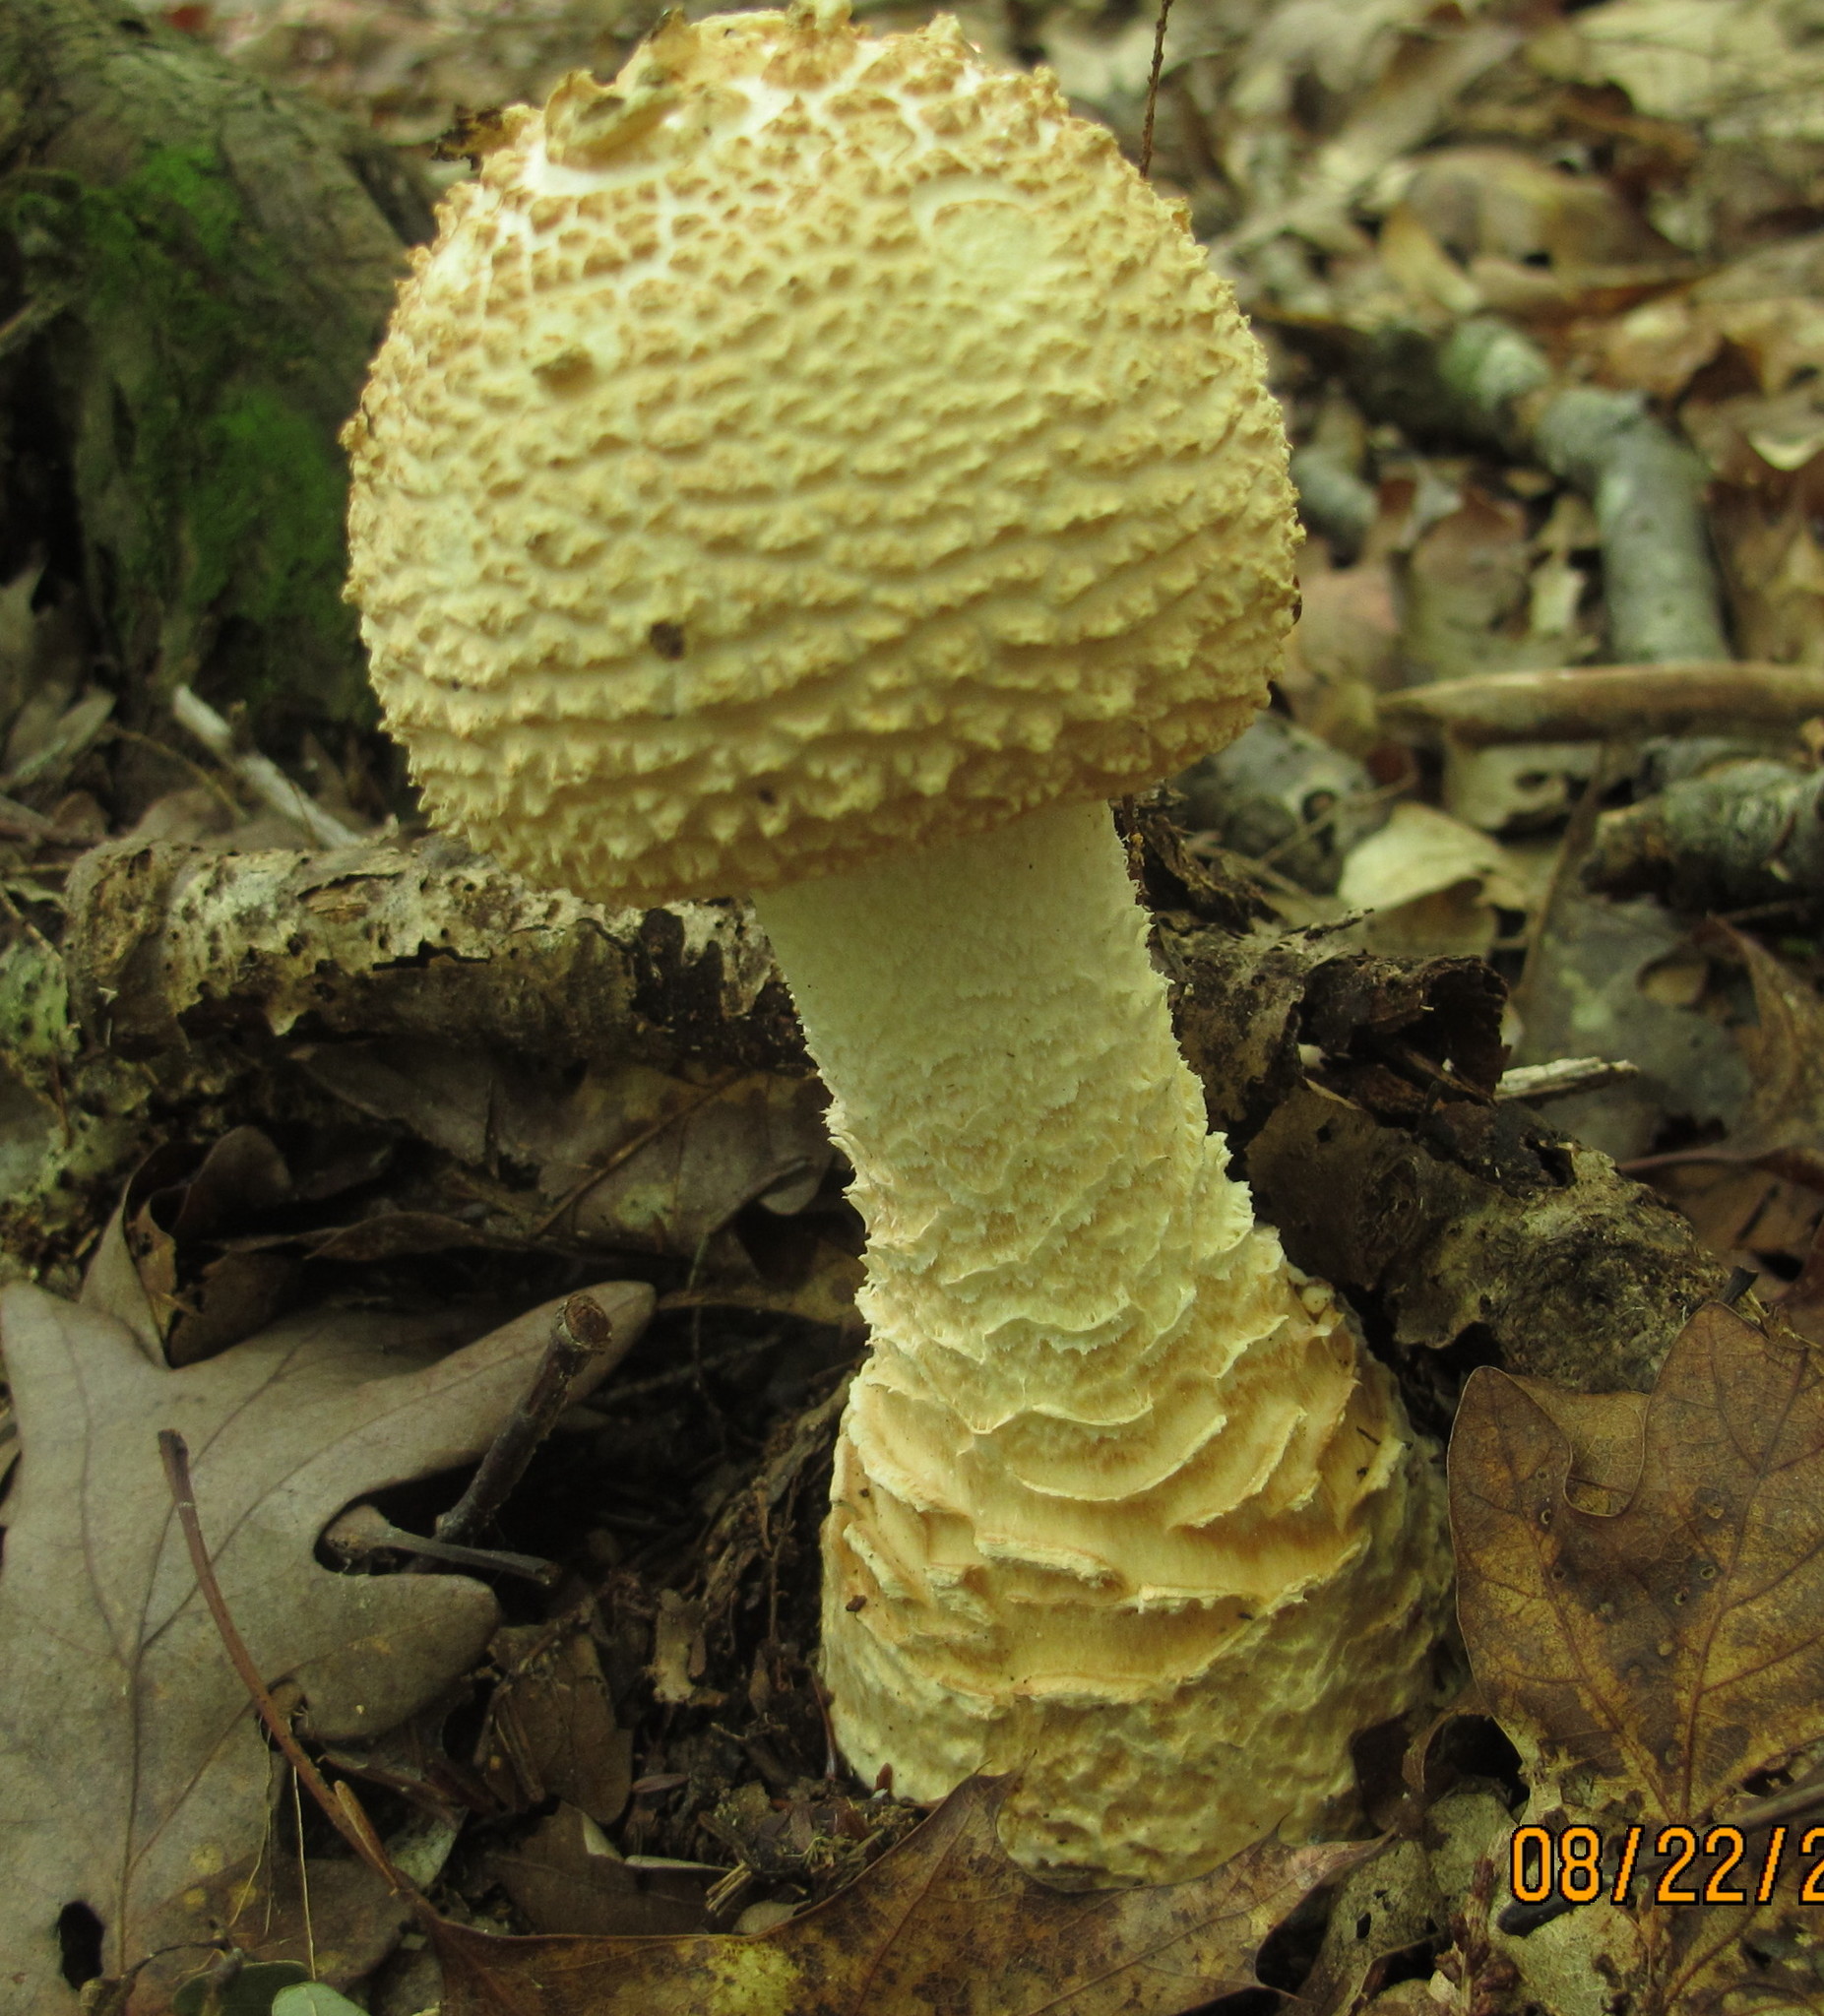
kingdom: Fungi
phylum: Basidiomycota
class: Agaricomycetes
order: Agaricales
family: Amanitaceae
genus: Amanita
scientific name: Amanita daucipes
